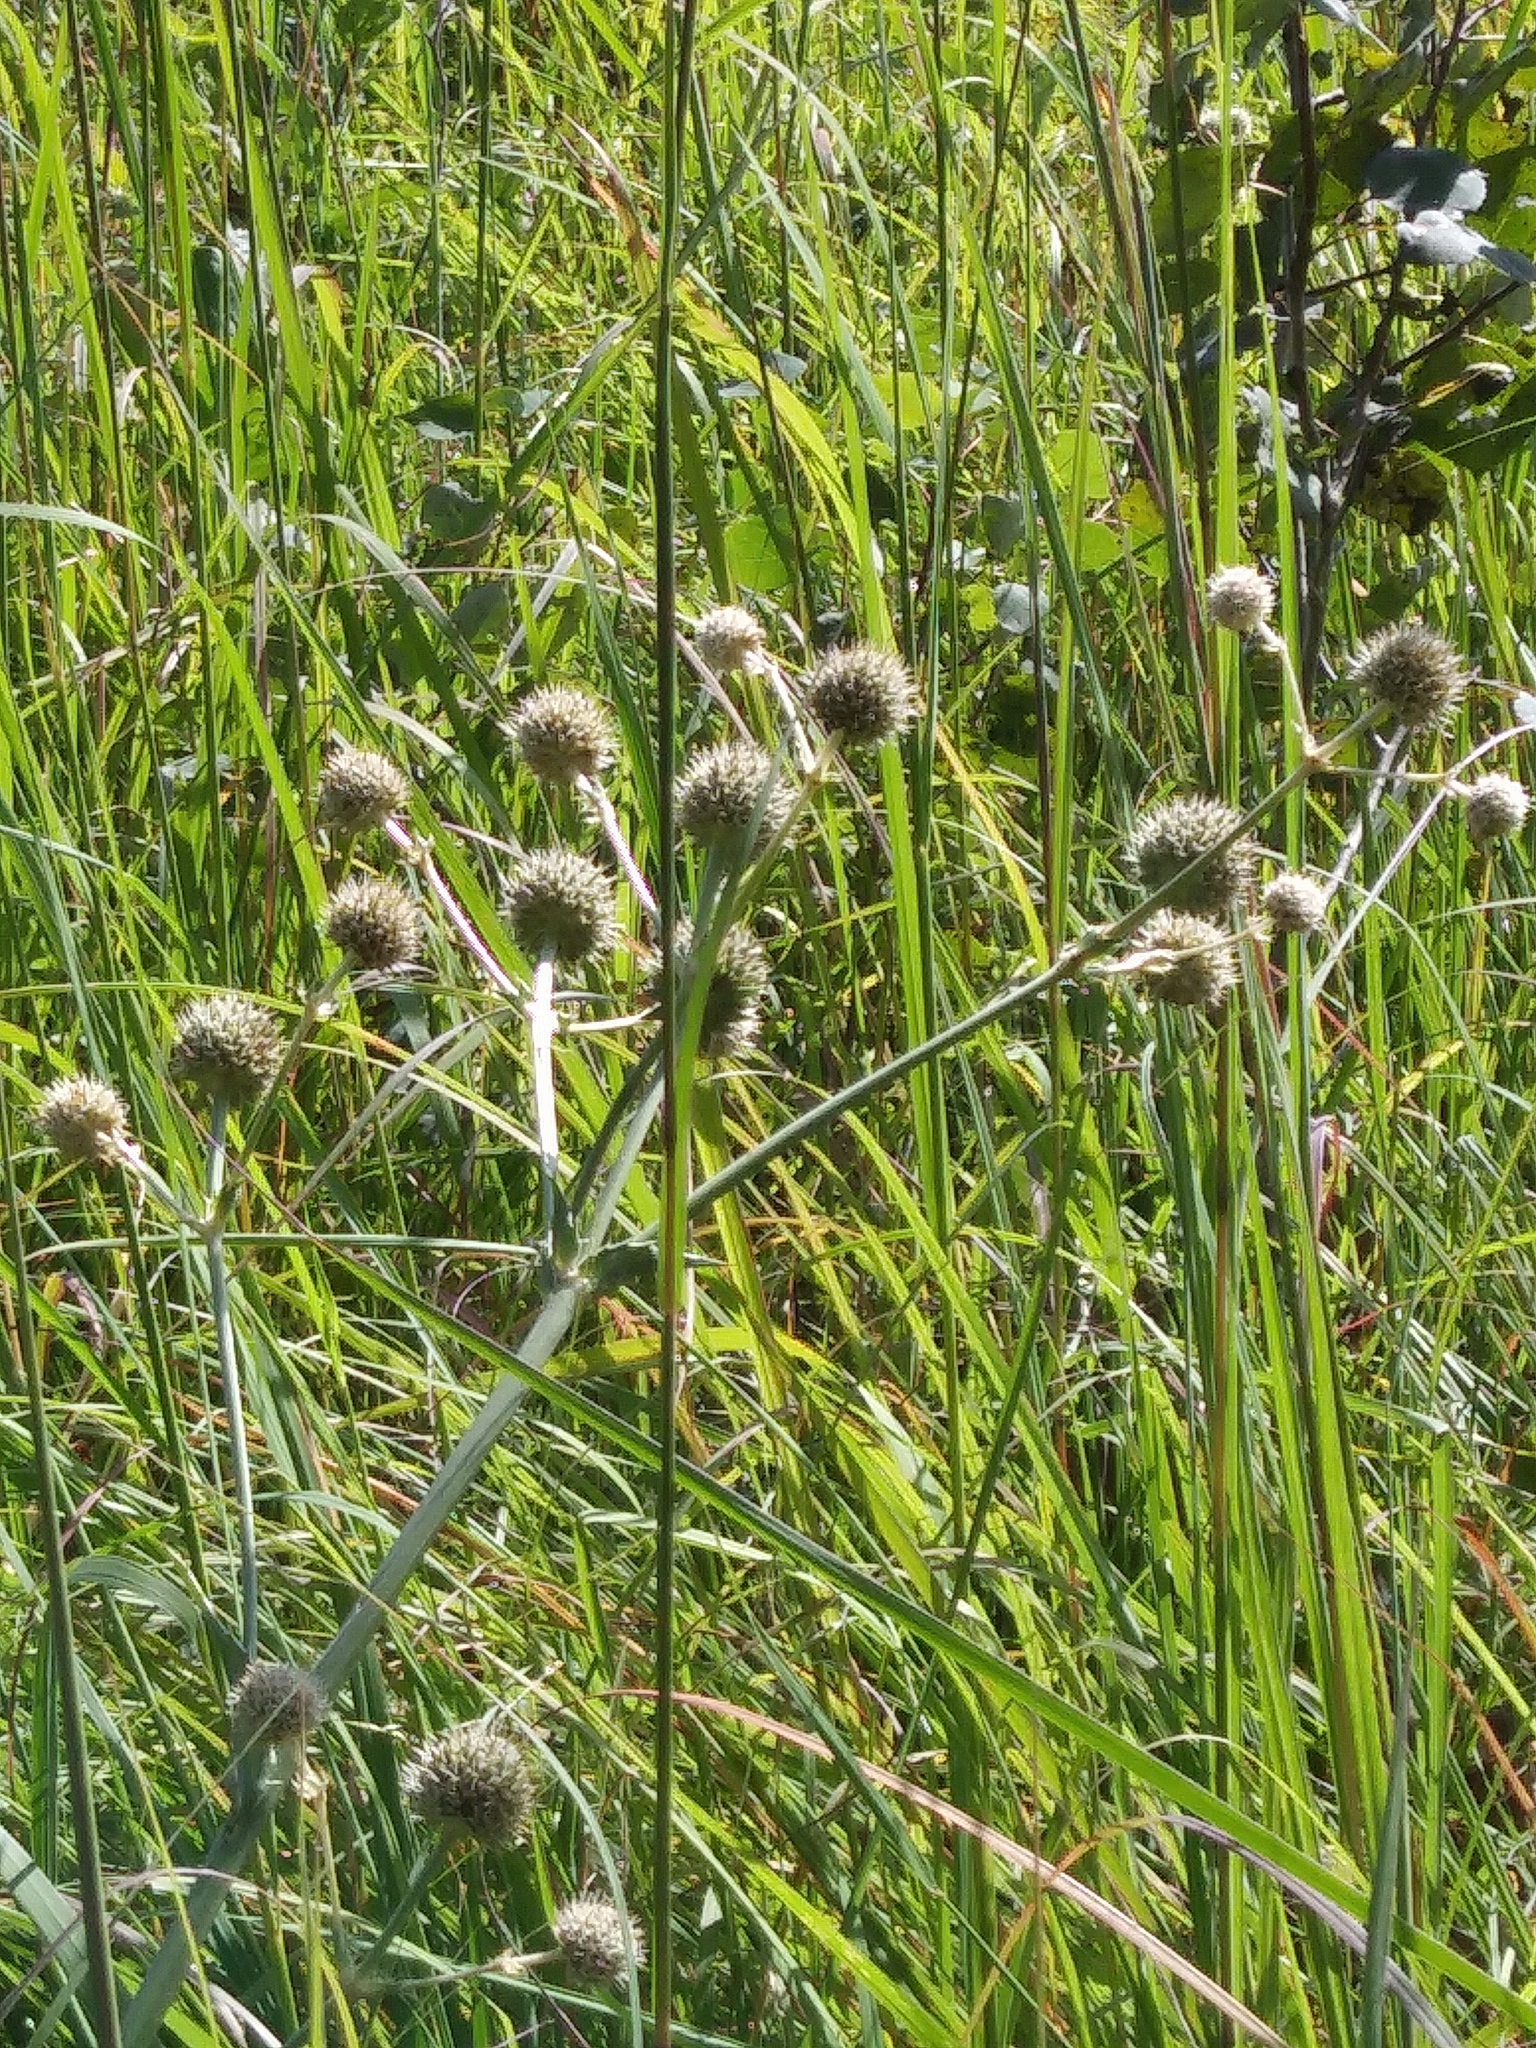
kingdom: Plantae
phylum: Tracheophyta
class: Magnoliopsida
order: Apiales
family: Apiaceae
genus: Eryngium
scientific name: Eryngium yuccifolium
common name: Button eryngo
